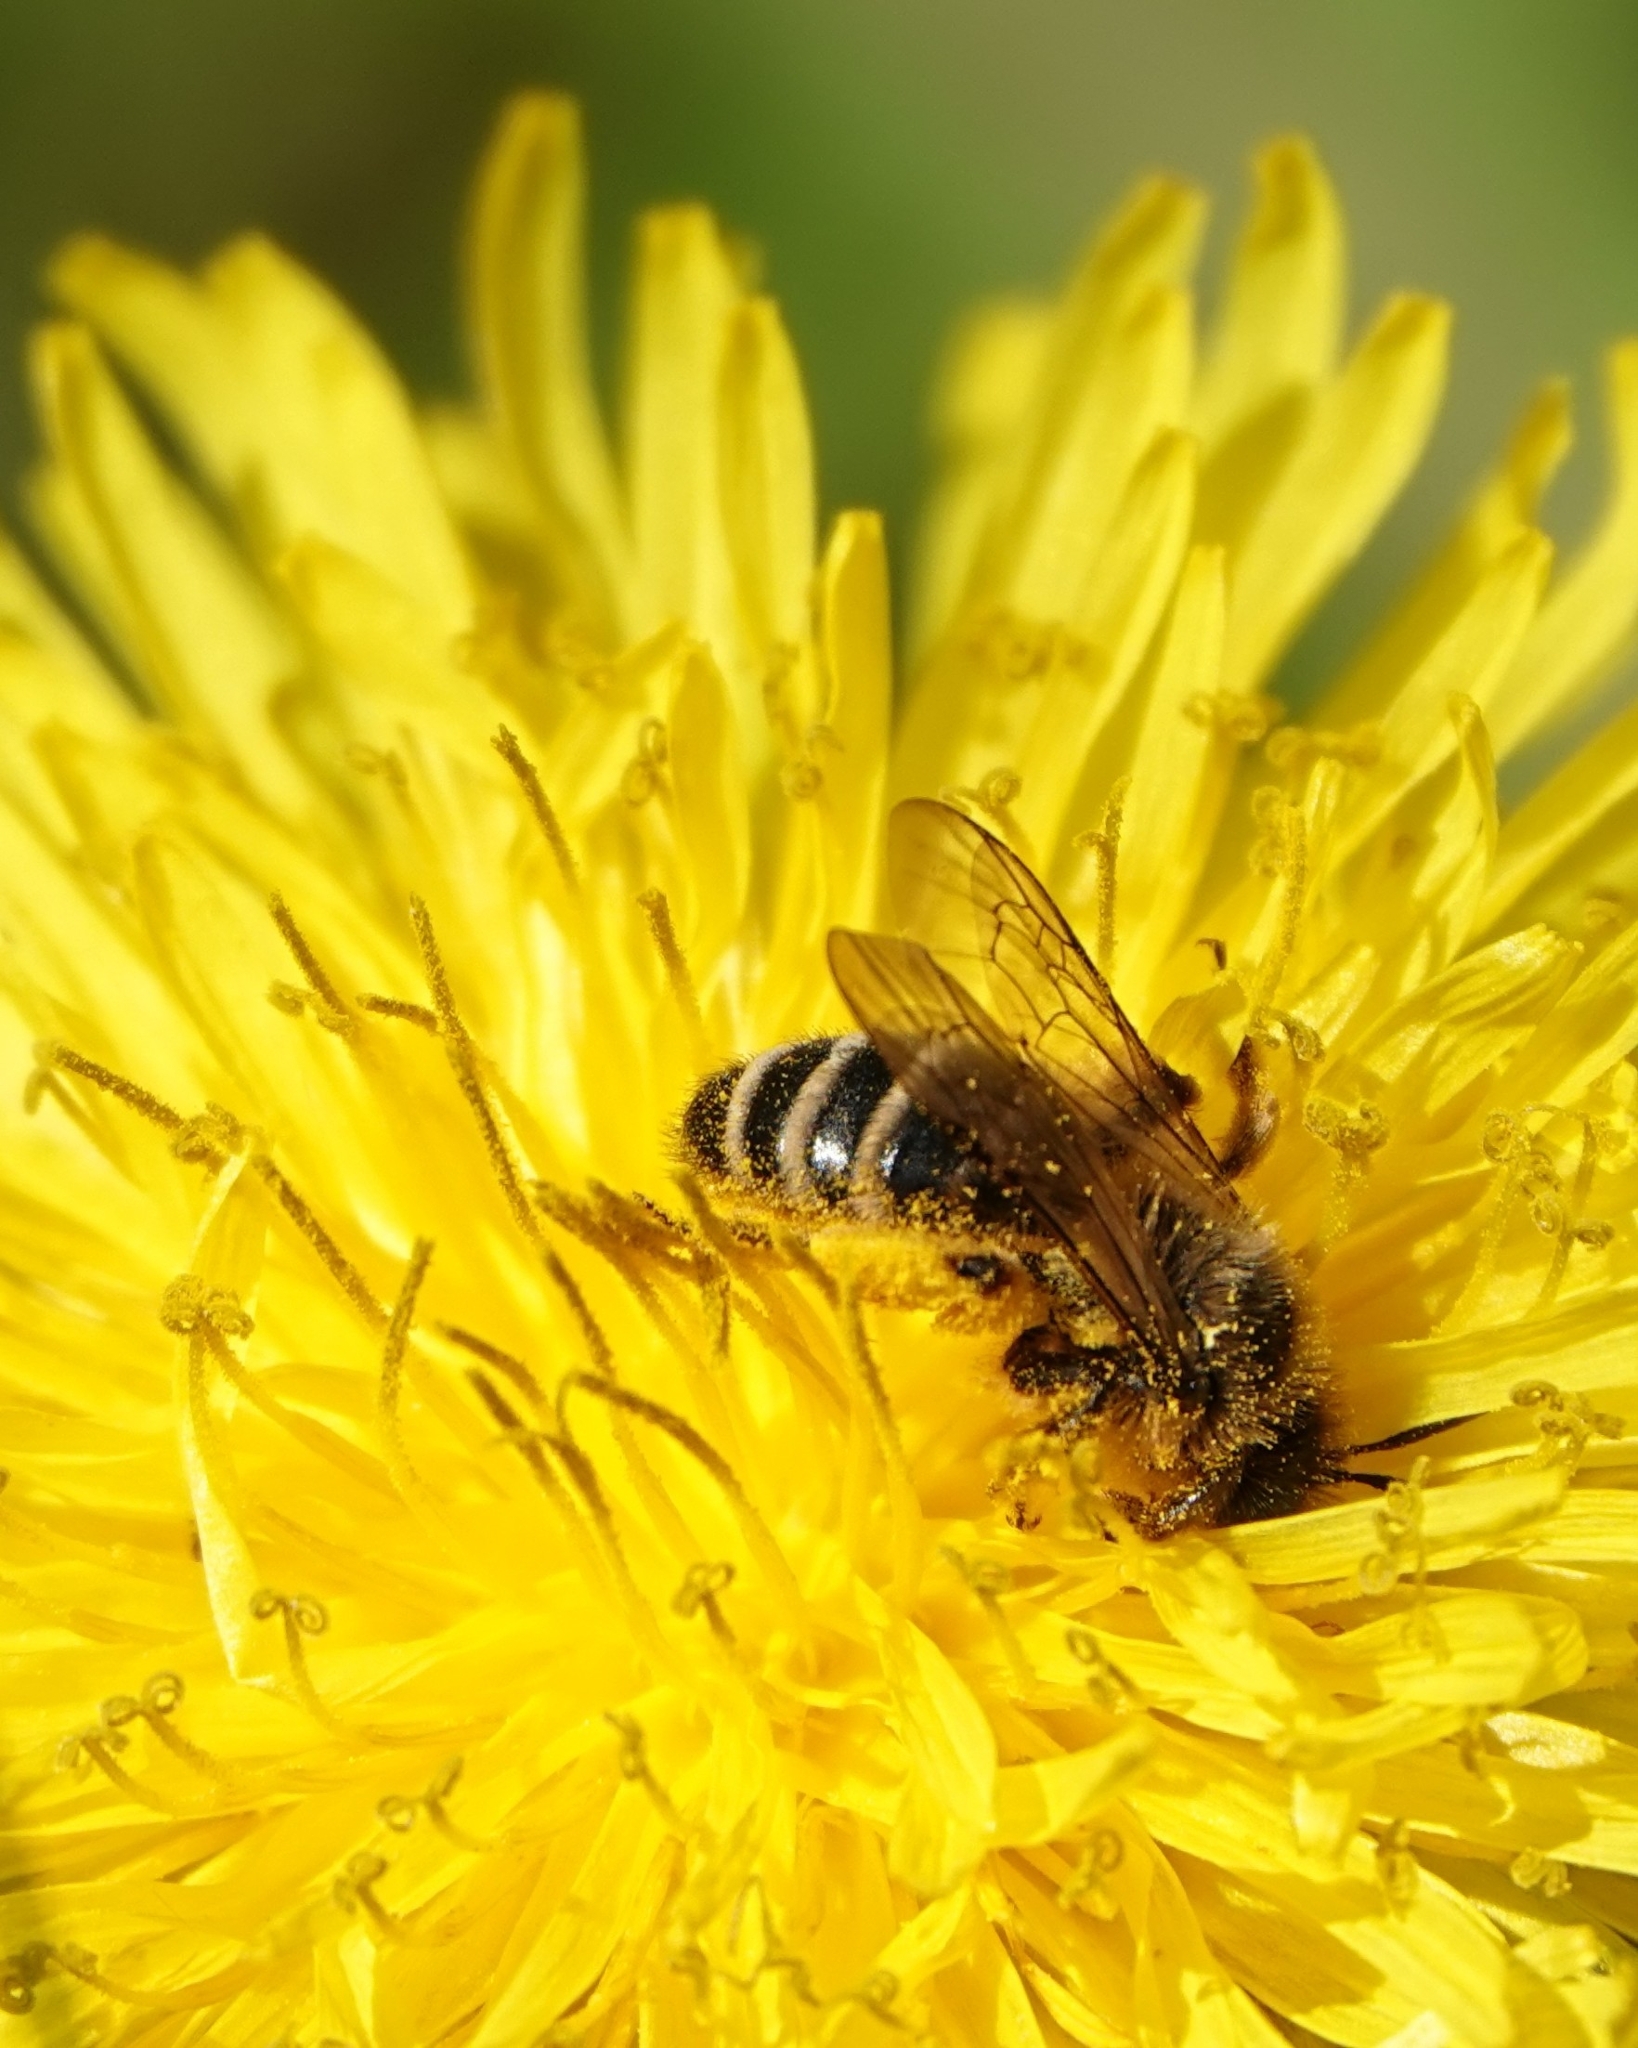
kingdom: Animalia
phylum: Arthropoda
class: Insecta
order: Hymenoptera
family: Andrenidae
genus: Andrena
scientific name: Andrena flavipes
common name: Yellow-legged mining bee
